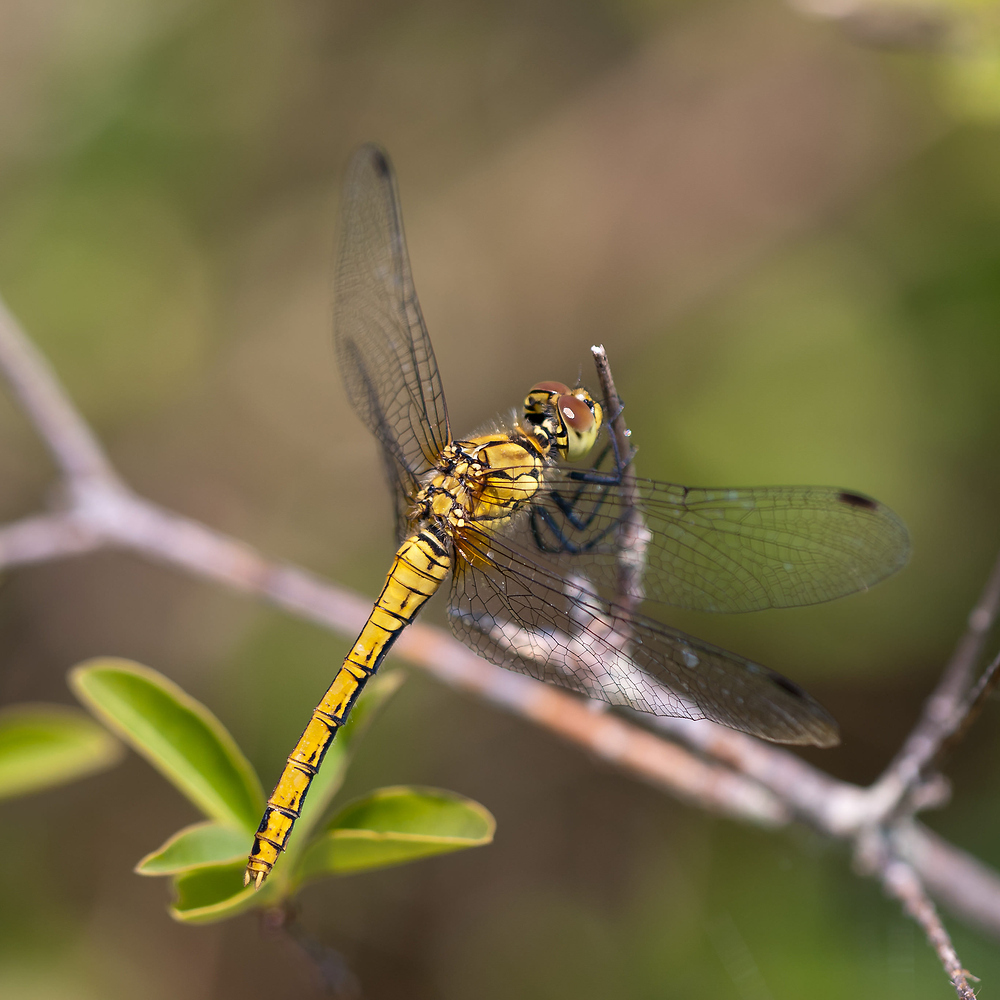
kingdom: Animalia
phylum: Arthropoda
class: Insecta
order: Odonata
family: Libellulidae
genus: Sympetrum
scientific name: Sympetrum sanguineum
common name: Ruddy darter
